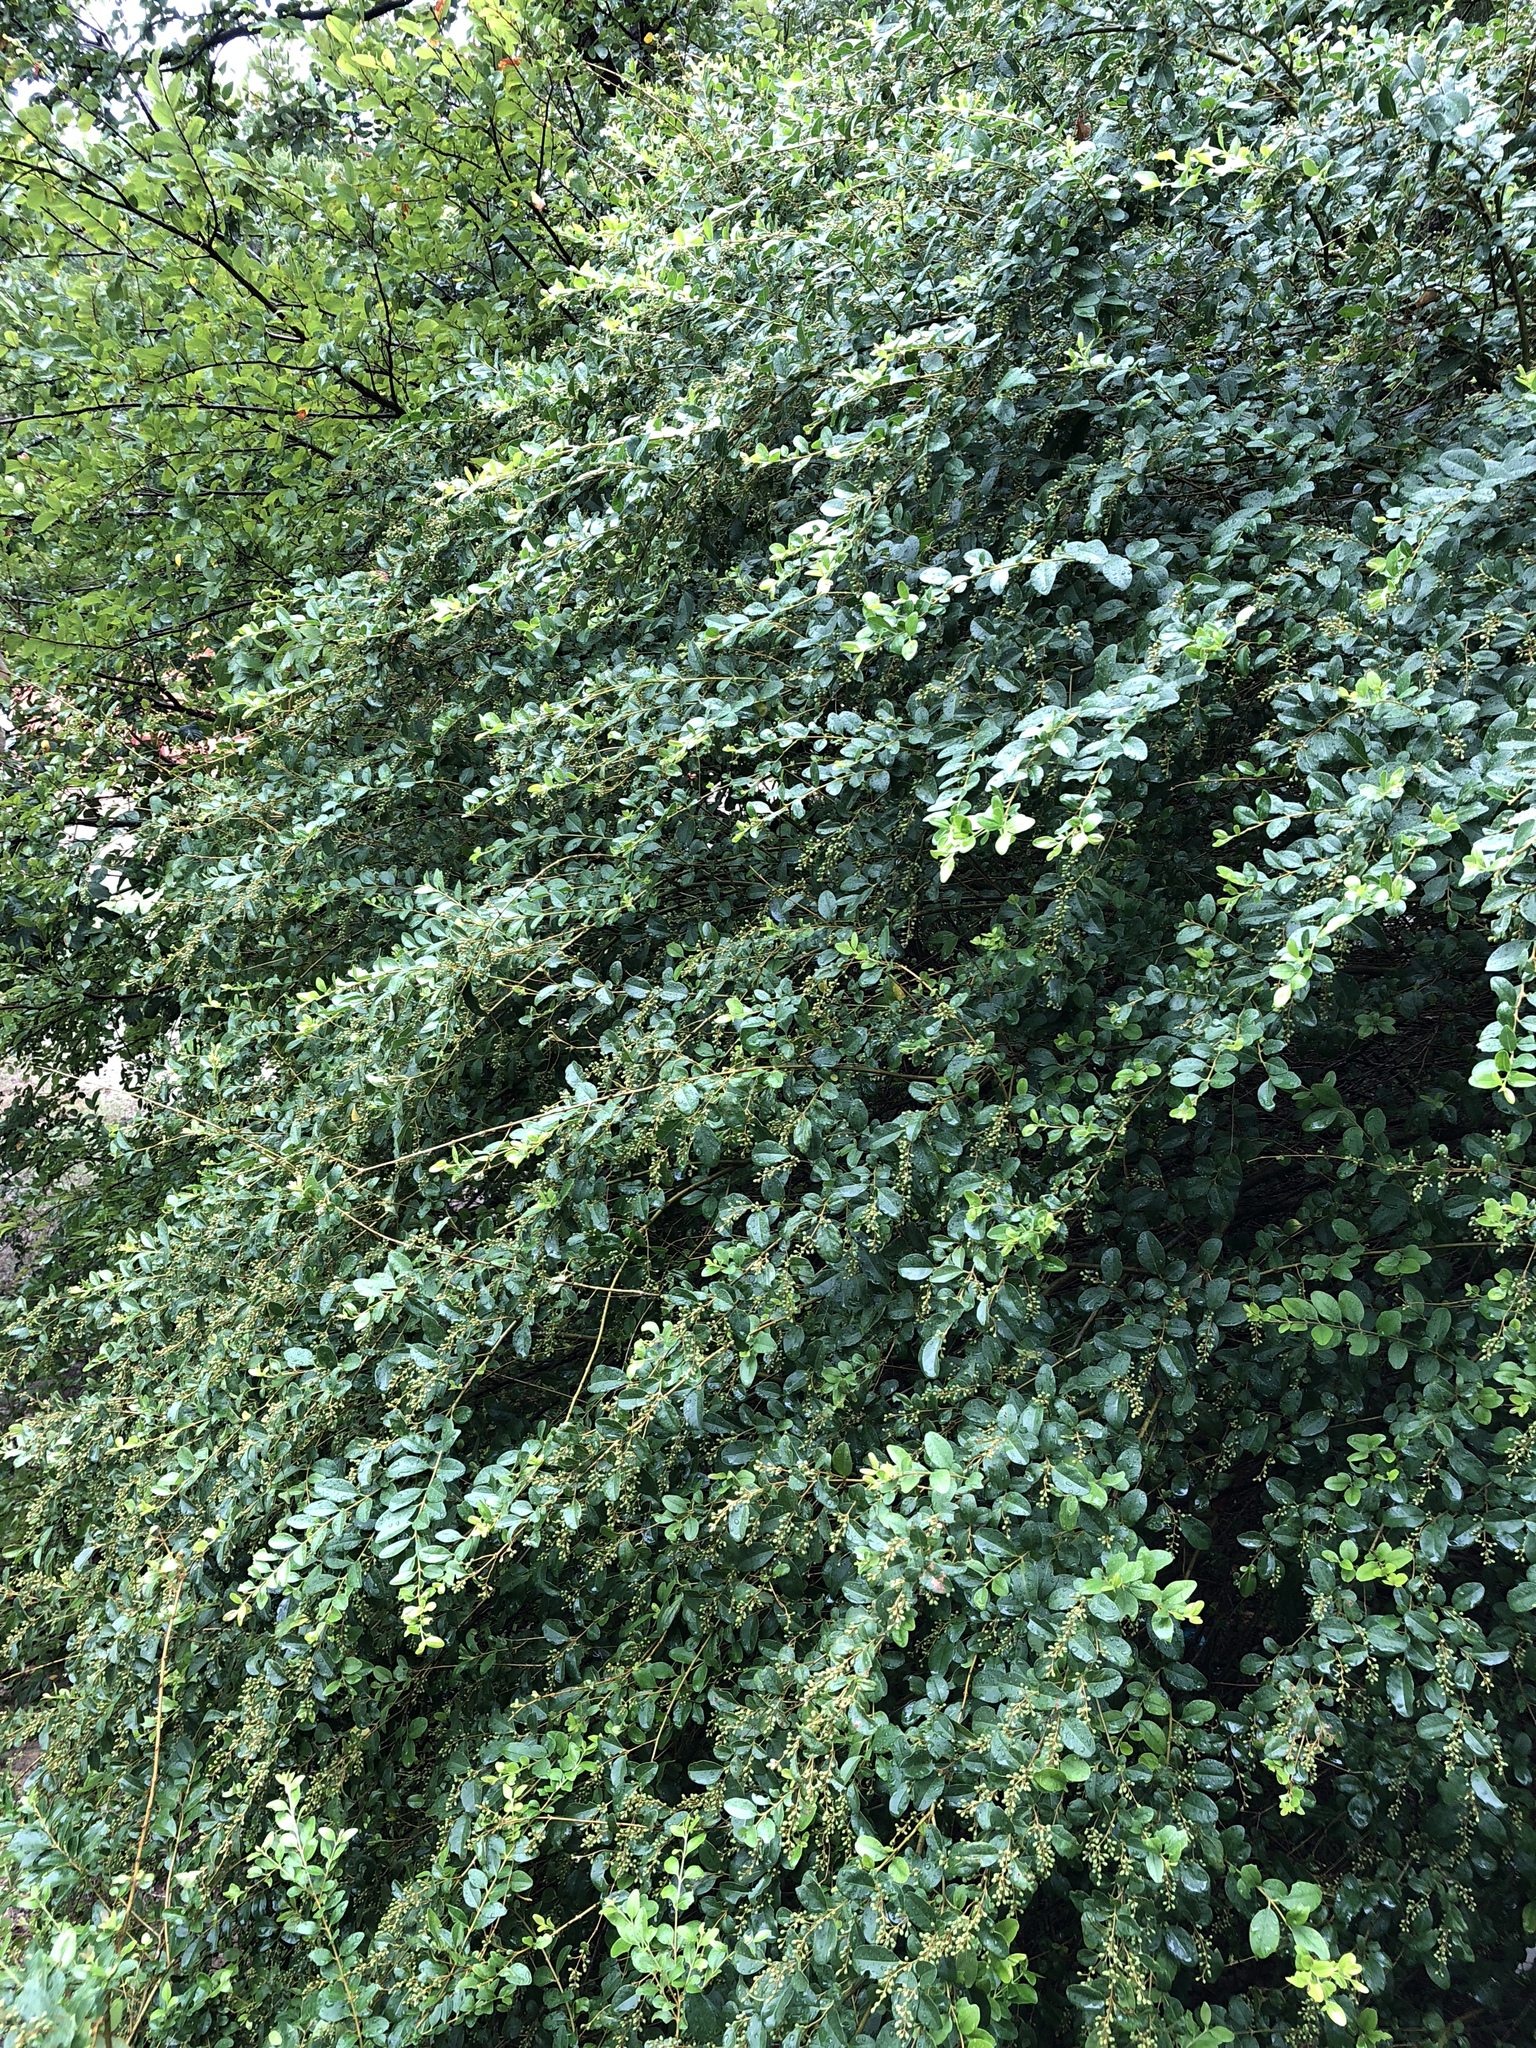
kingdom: Plantae
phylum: Tracheophyta
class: Magnoliopsida
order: Lamiales
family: Oleaceae
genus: Ligustrum
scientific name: Ligustrum sinense
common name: Chinese privet
